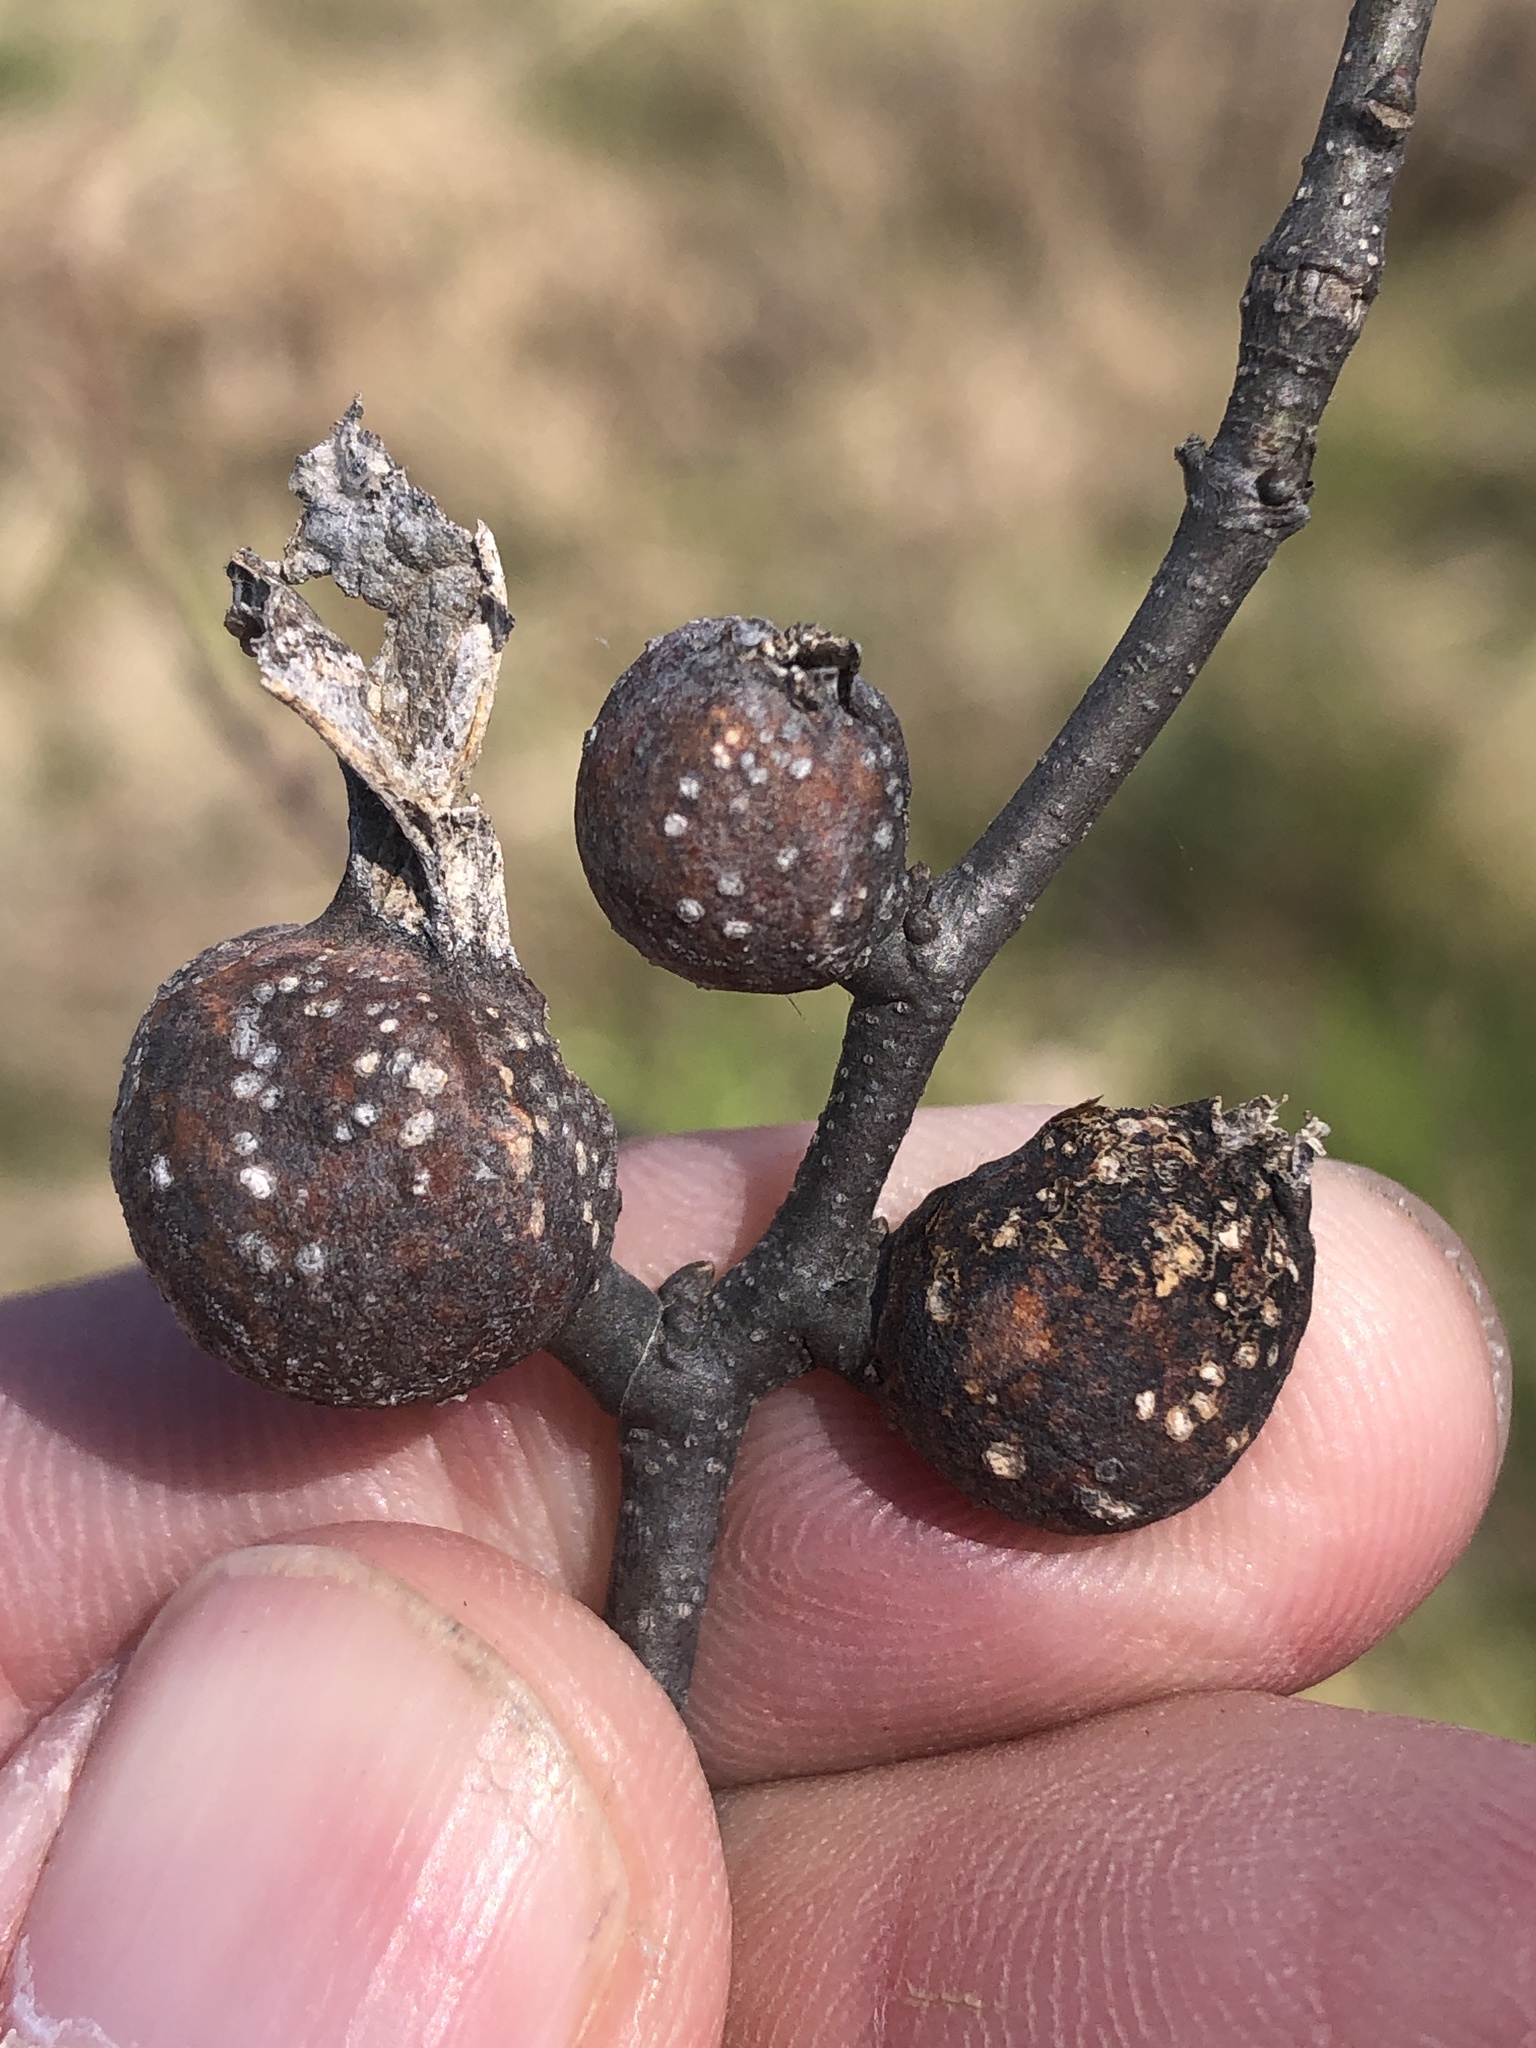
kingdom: Animalia
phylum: Arthropoda
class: Insecta
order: Hemiptera
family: Aphalaridae
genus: Pachypsylla
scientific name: Pachypsylla venusta
